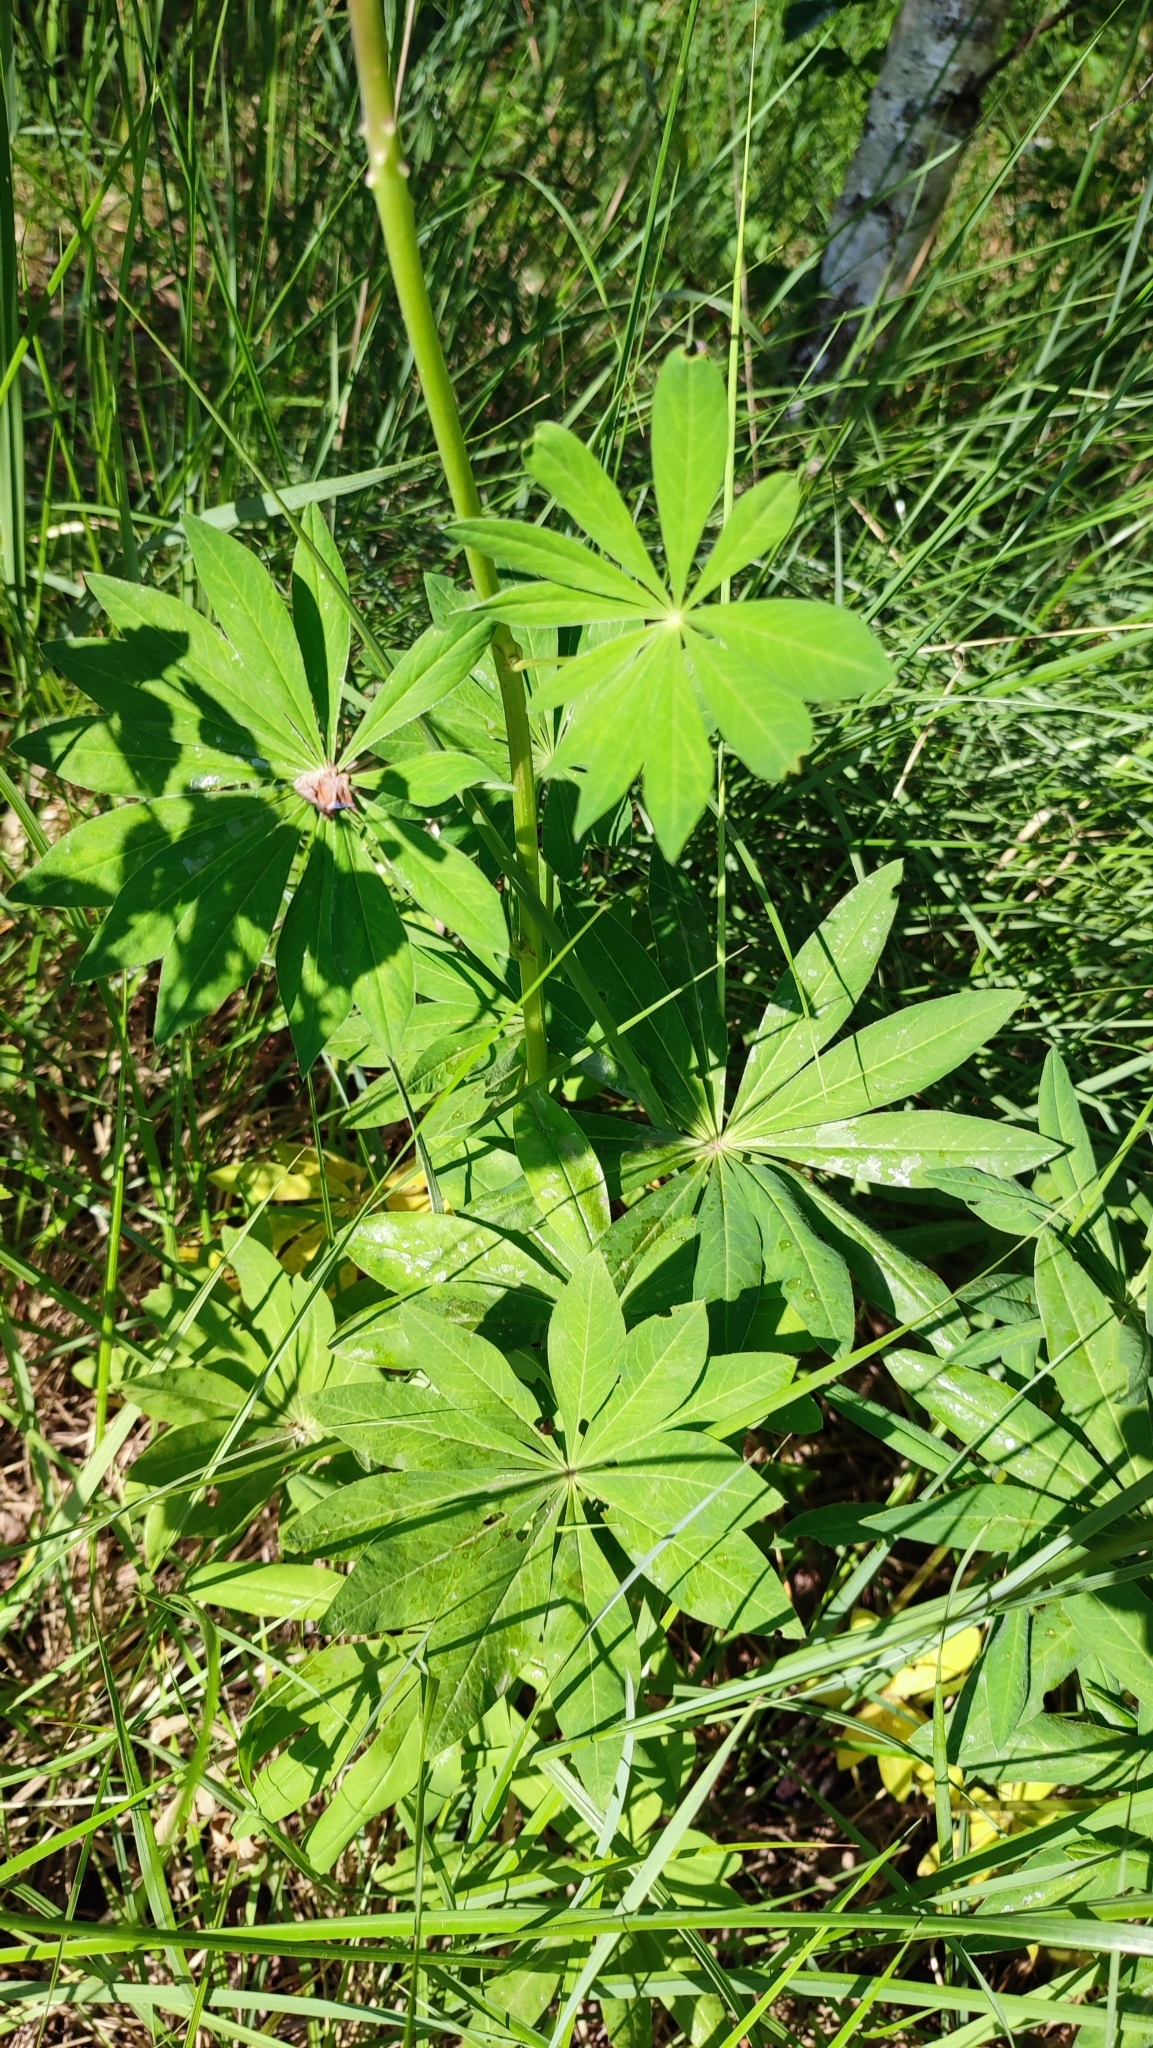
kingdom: Plantae
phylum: Tracheophyta
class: Magnoliopsida
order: Fabales
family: Fabaceae
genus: Lupinus
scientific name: Lupinus polyphyllus
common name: Garden lupin
